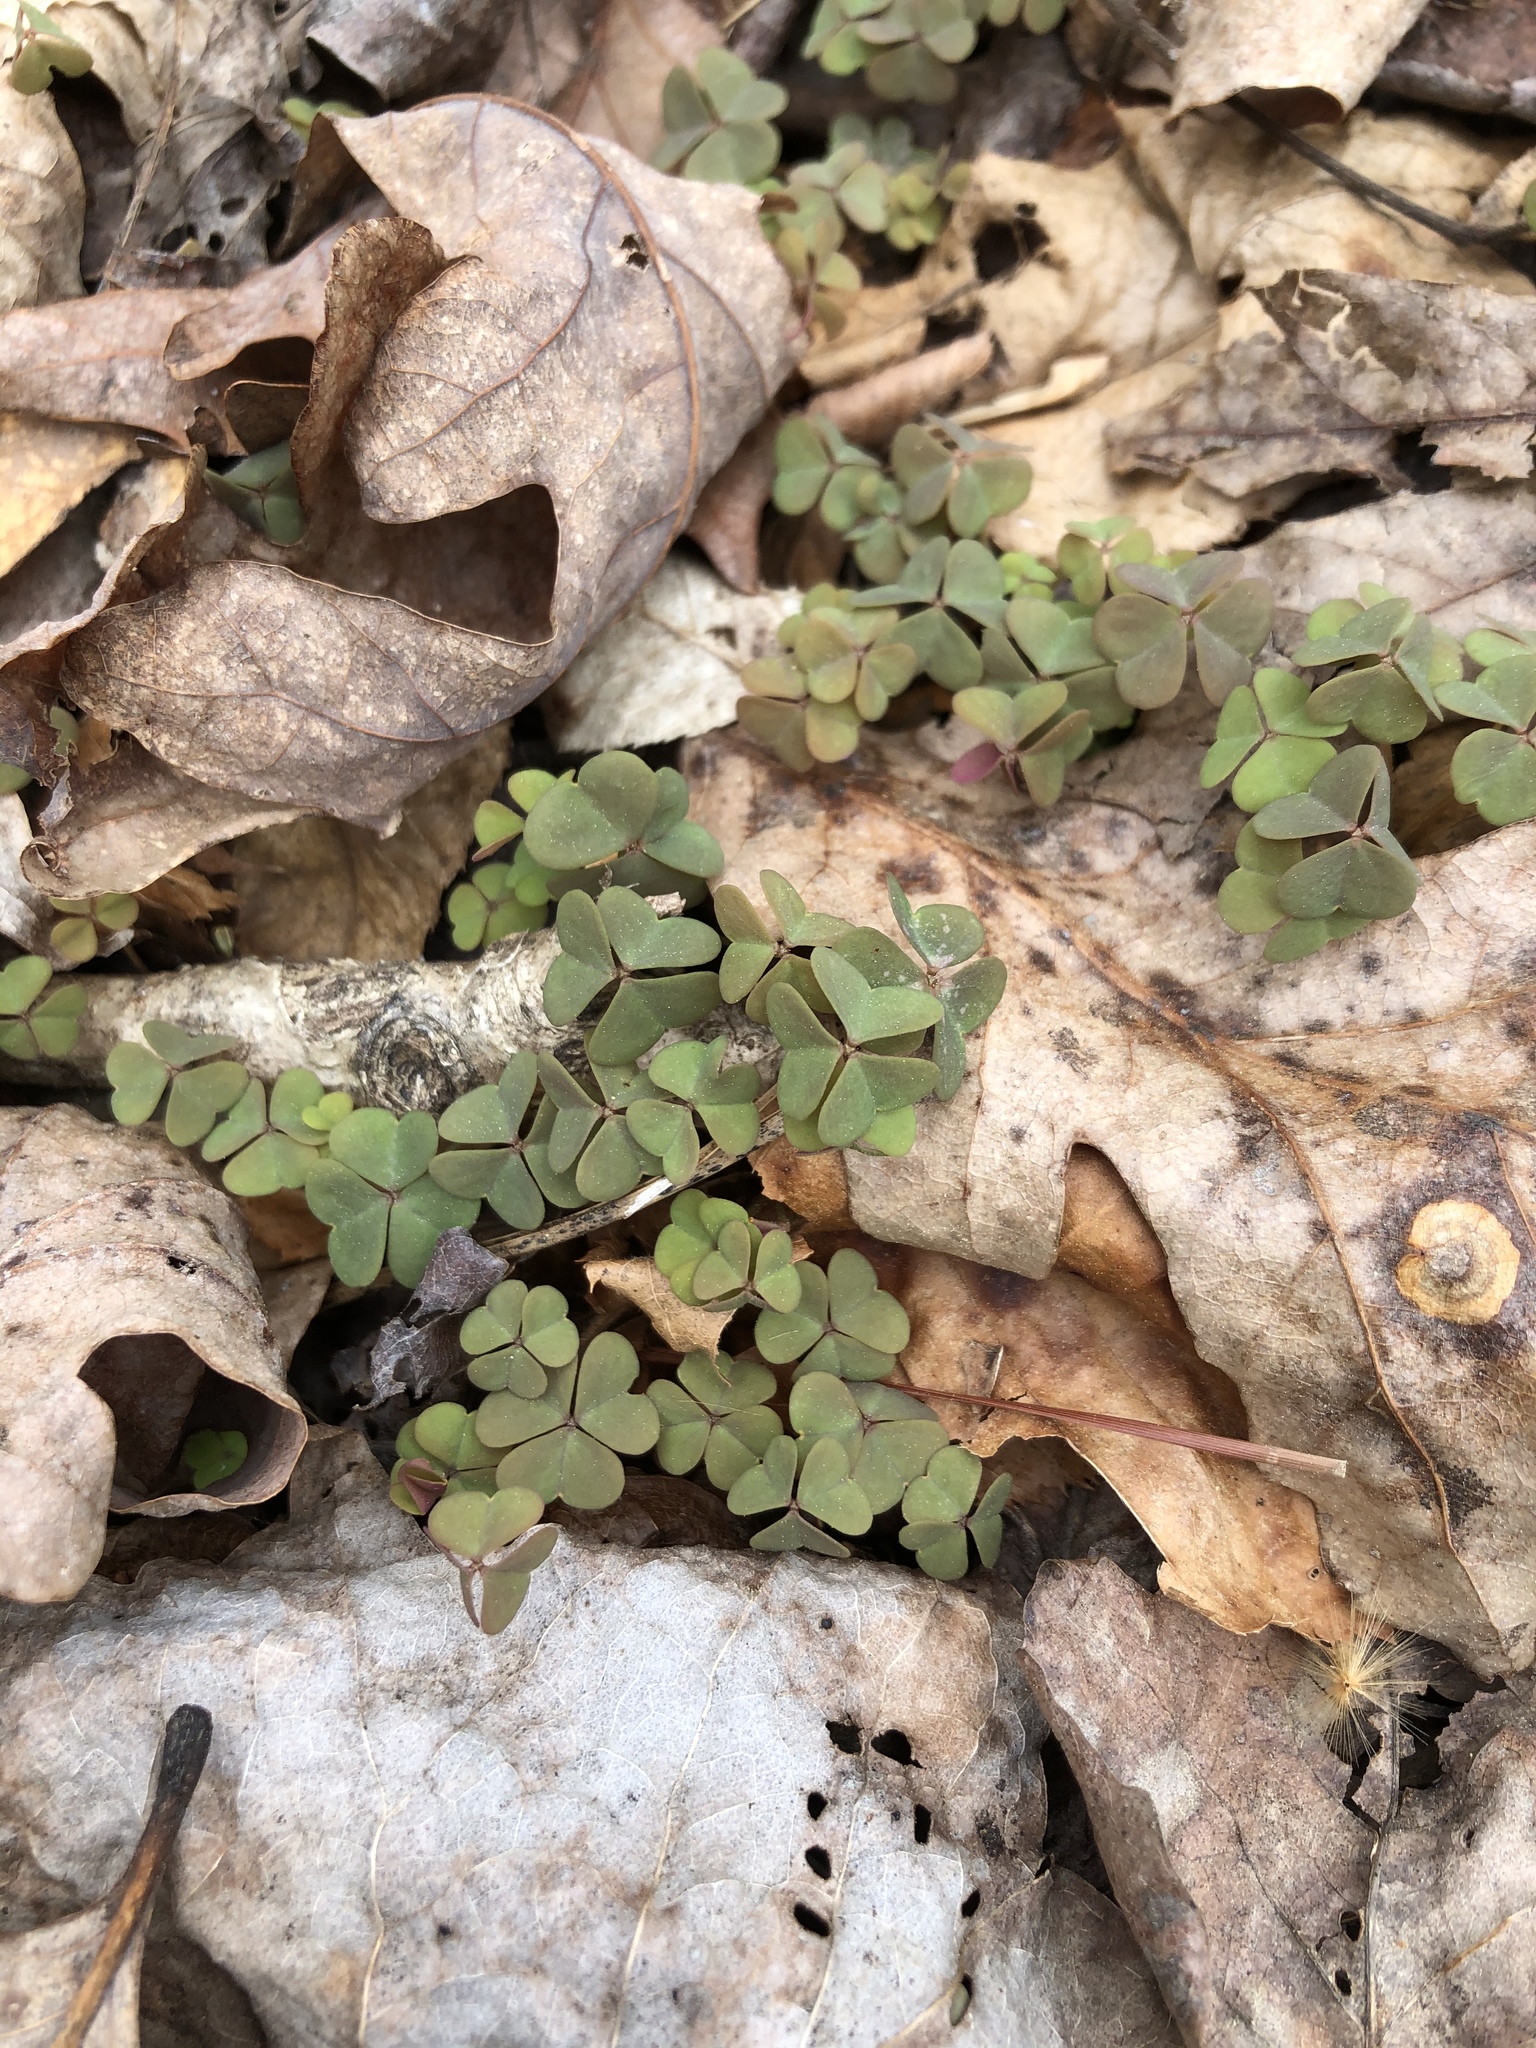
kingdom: Plantae
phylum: Tracheophyta
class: Magnoliopsida
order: Oxalidales
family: Oxalidaceae
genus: Oxalis
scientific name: Oxalis violacea
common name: Violet wood-sorrel
